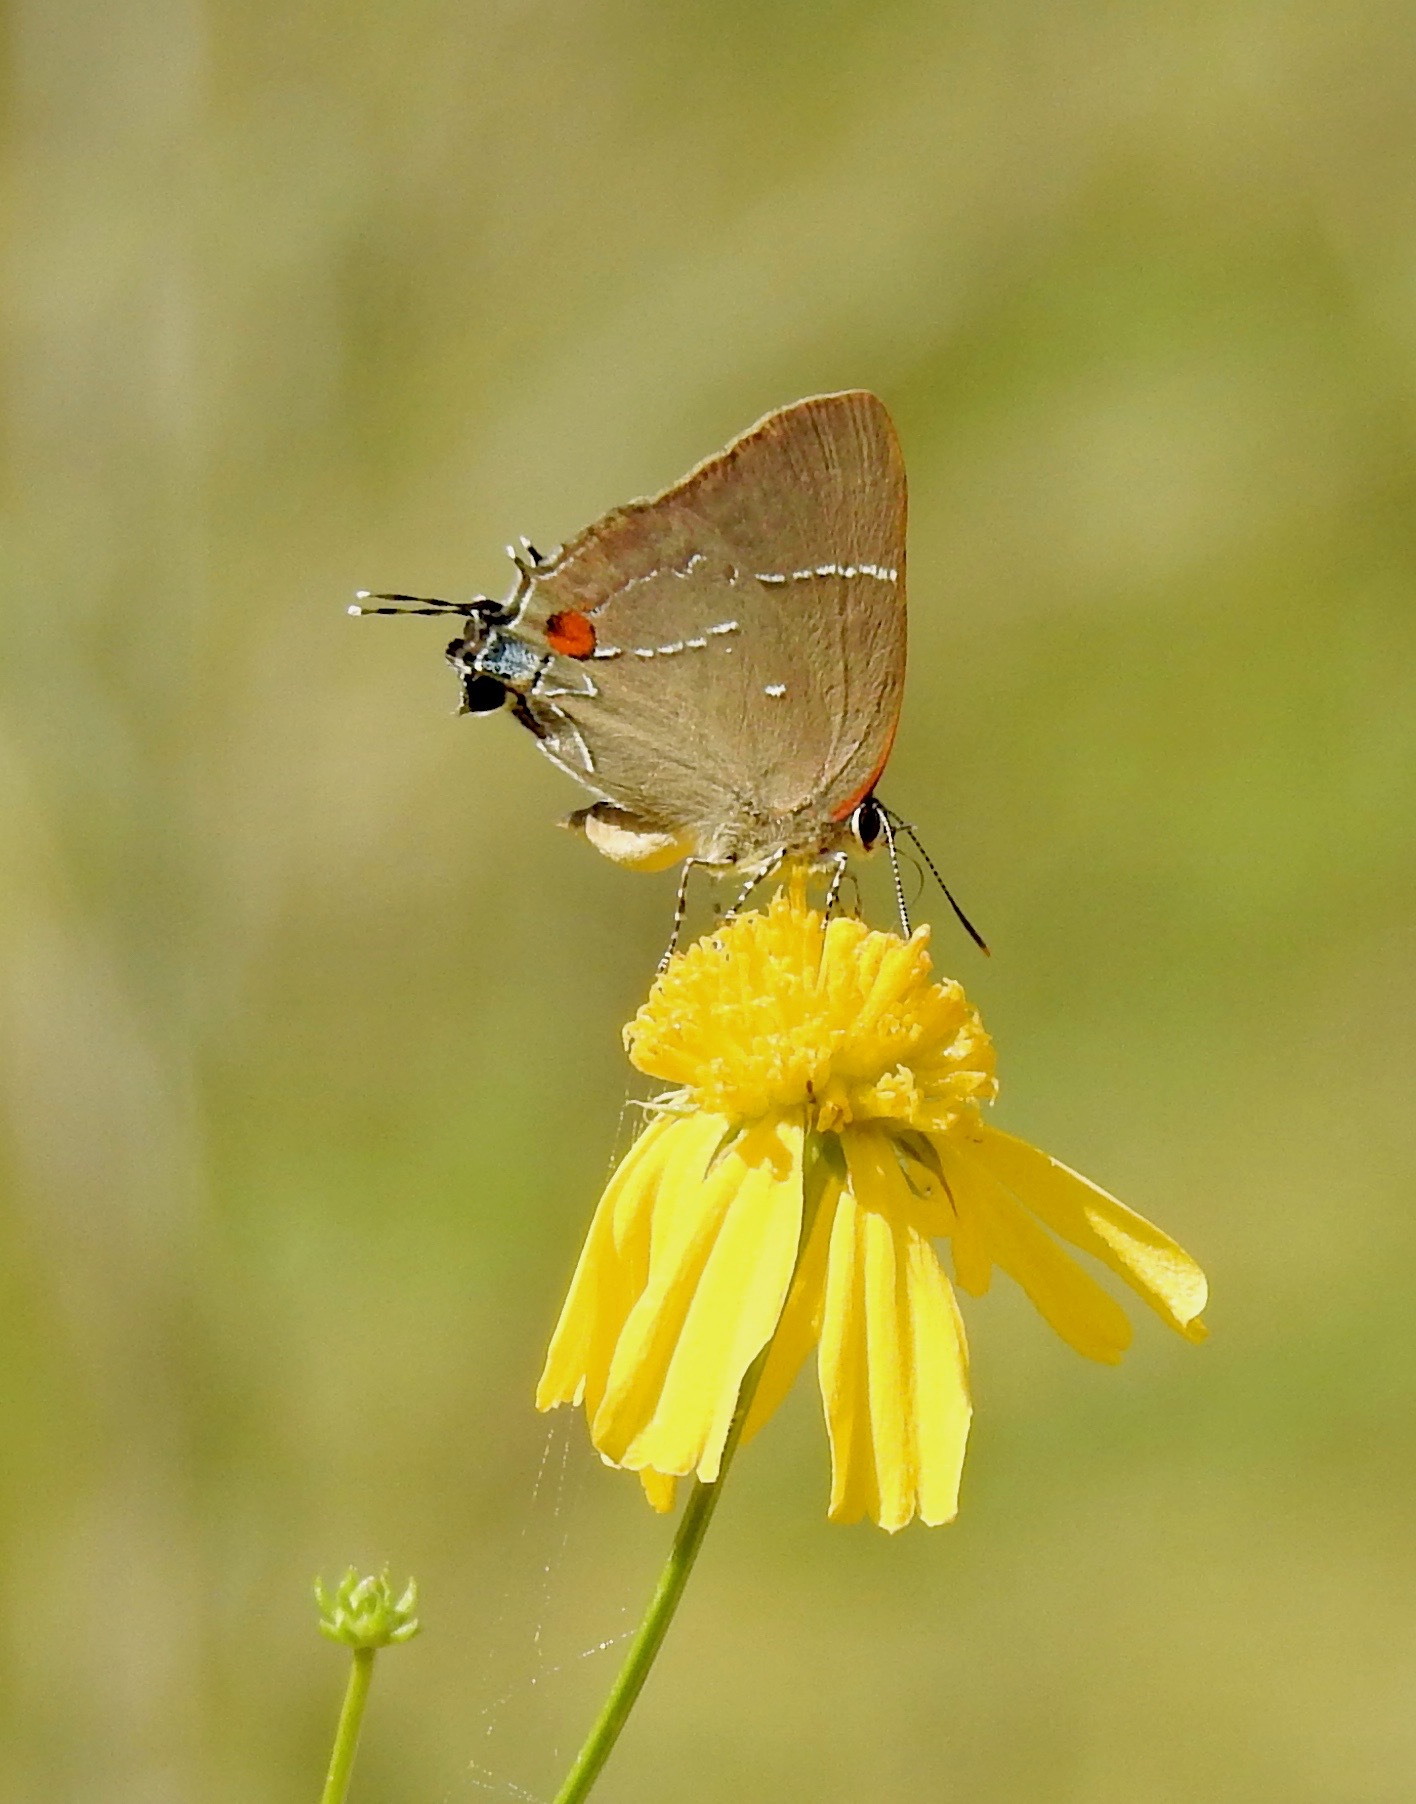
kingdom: Animalia
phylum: Arthropoda
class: Insecta
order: Lepidoptera
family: Lycaenidae
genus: Parrhasius
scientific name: Parrhasius m-album
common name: White m hairstreak
